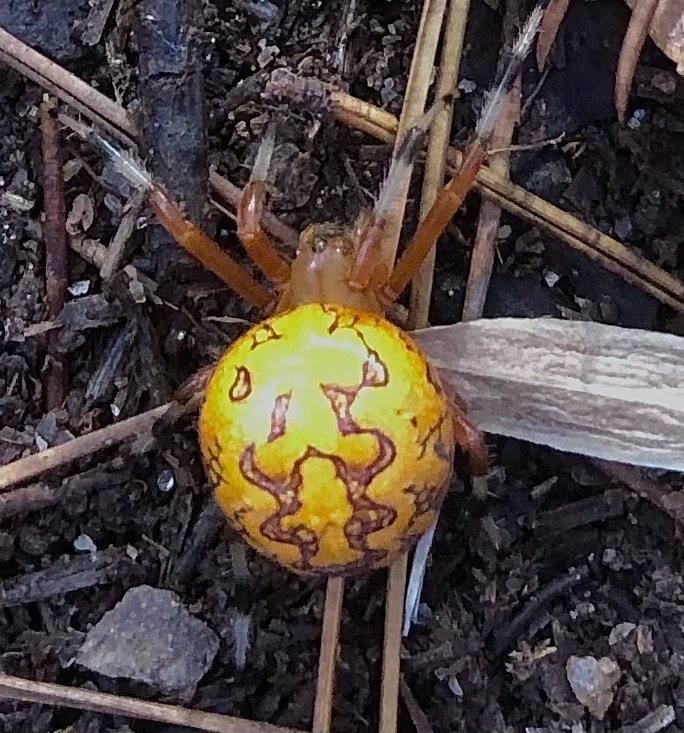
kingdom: Animalia
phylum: Arthropoda
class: Arachnida
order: Araneae
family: Araneidae
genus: Araneus
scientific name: Araneus marmoreus
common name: Marbled orbweaver
